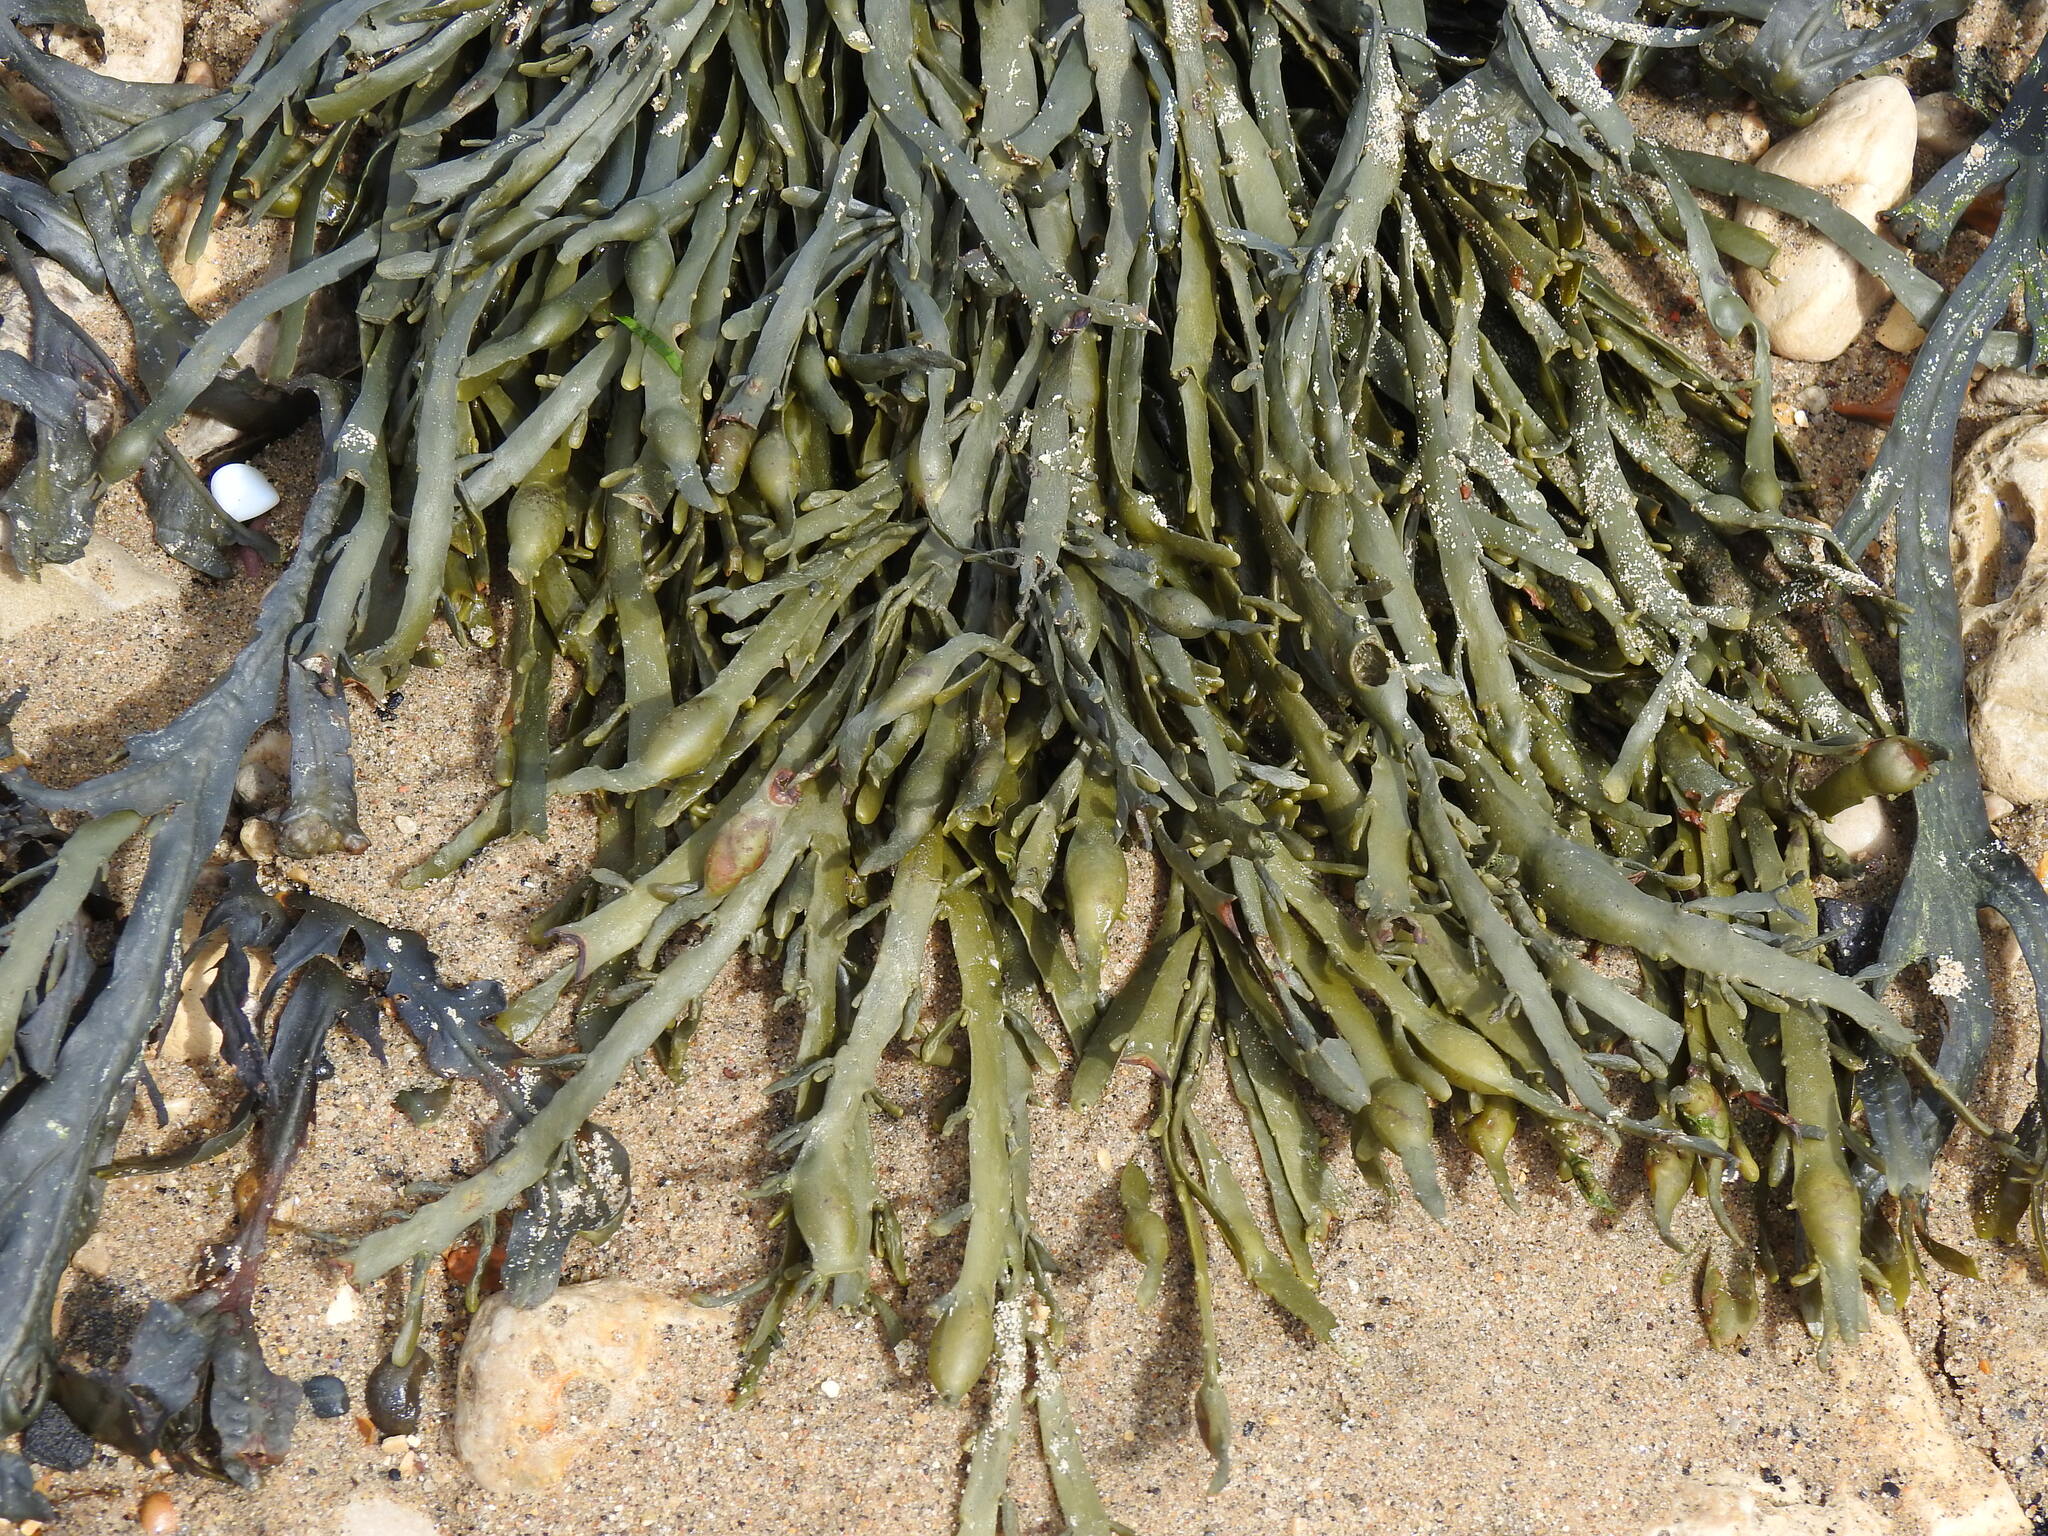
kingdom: Chromista
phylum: Ochrophyta
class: Phaeophyceae
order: Fucales
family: Fucaceae
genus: Ascophyllum
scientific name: Ascophyllum nodosum
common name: Knotted wrack
